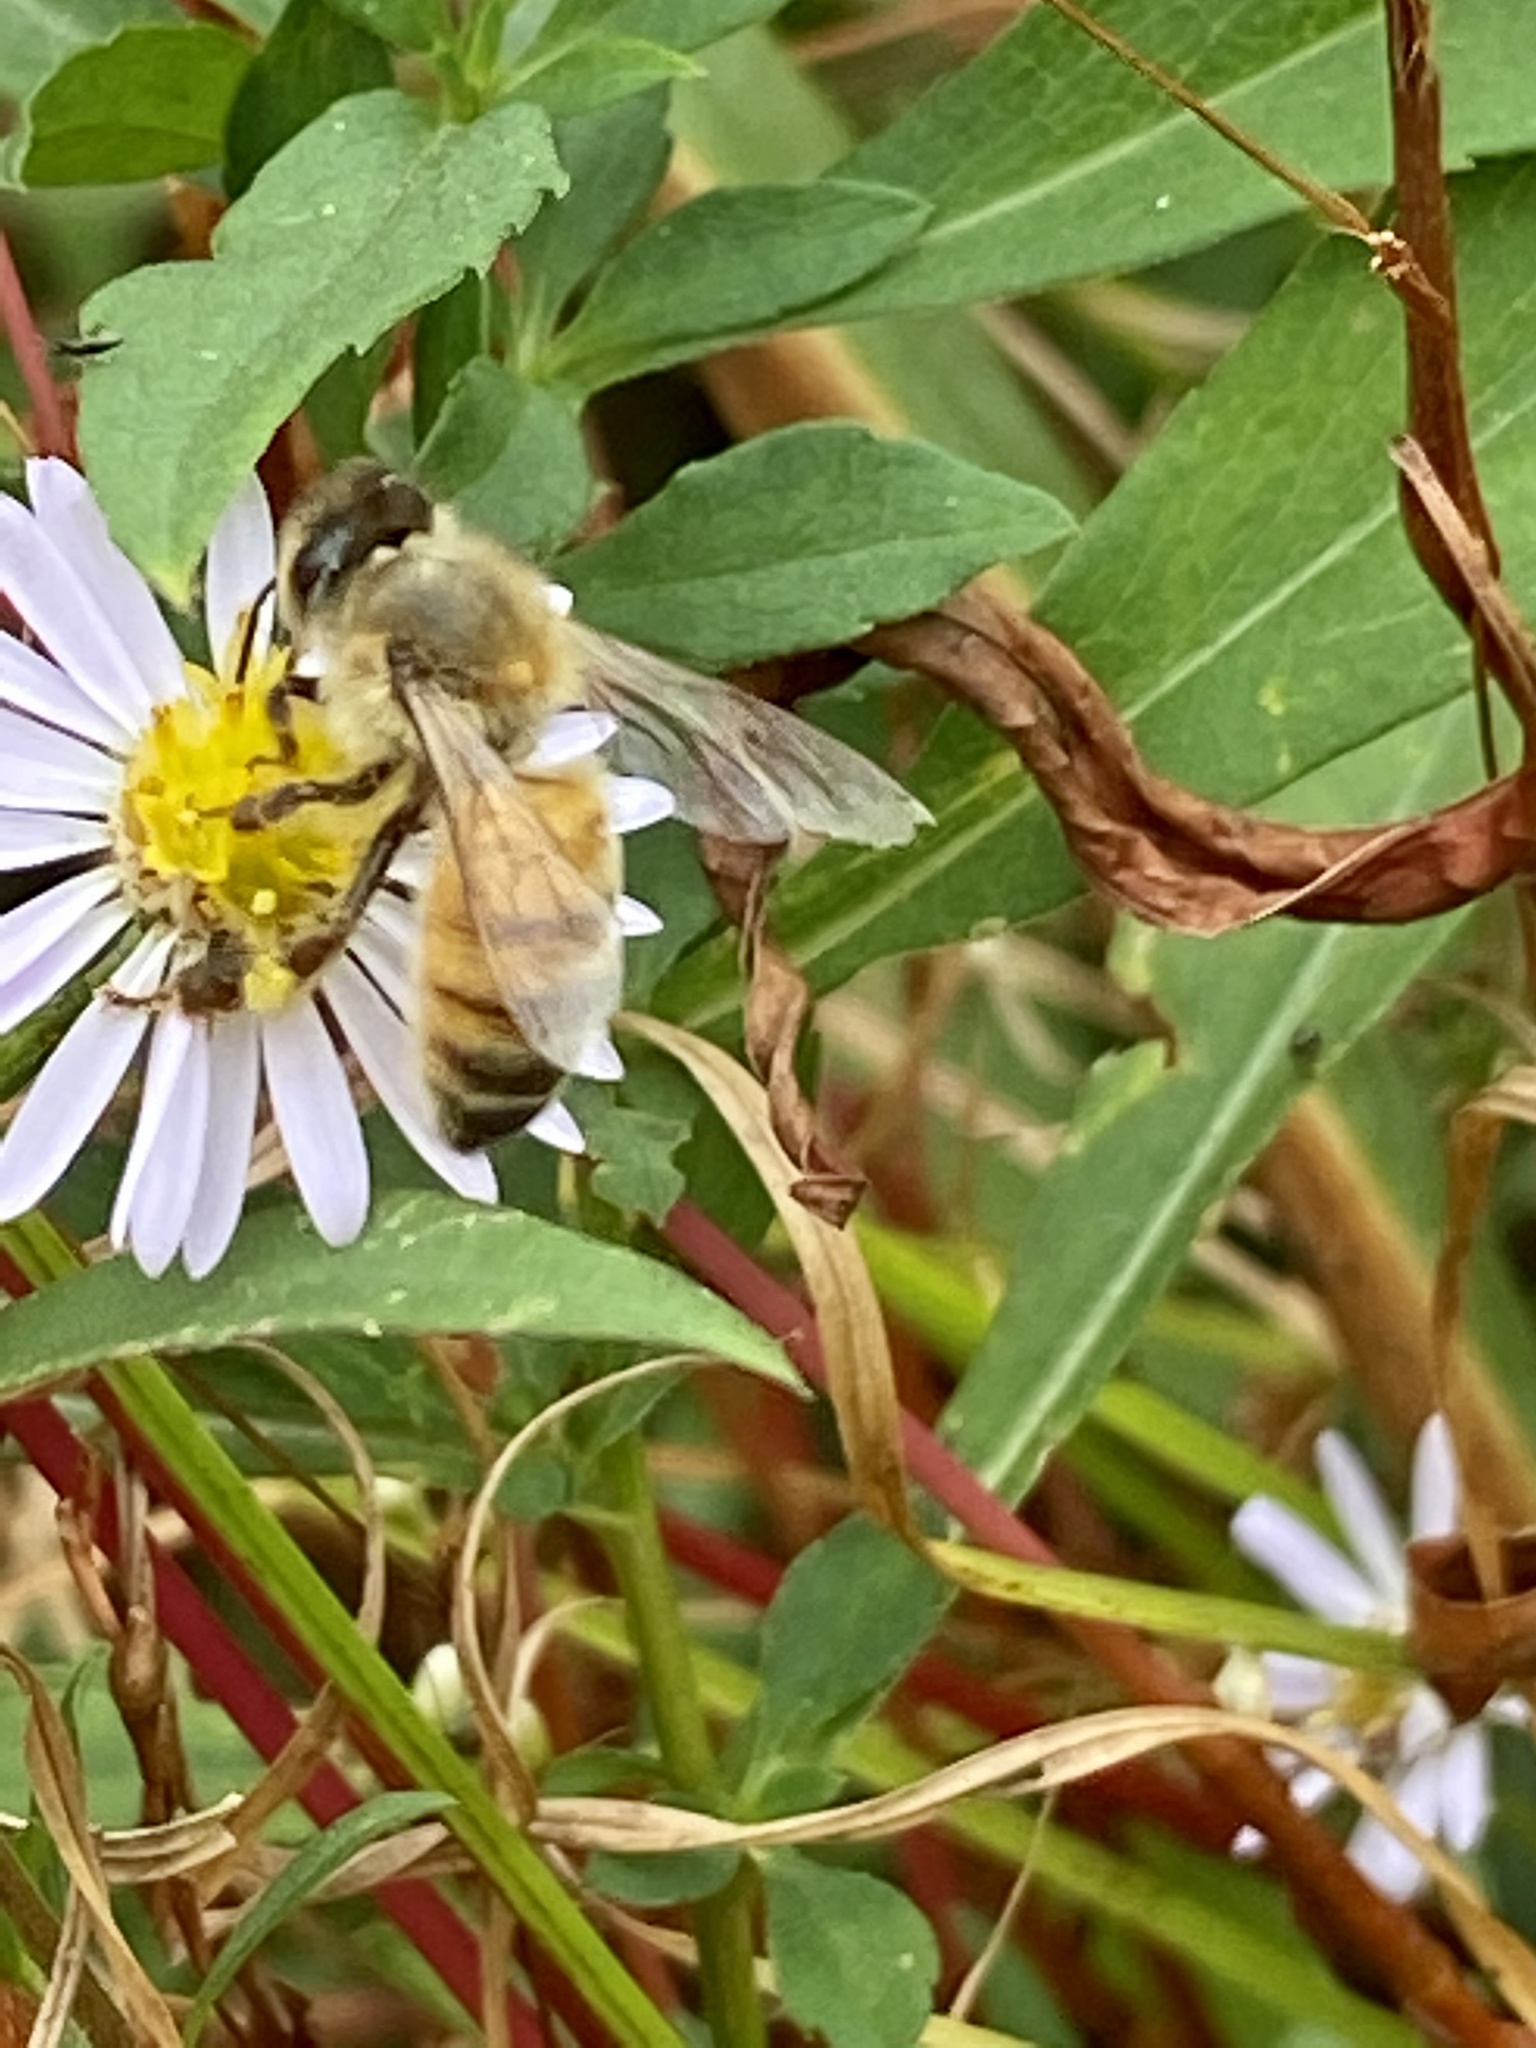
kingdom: Animalia
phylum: Arthropoda
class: Insecta
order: Hymenoptera
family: Apidae
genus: Apis
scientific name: Apis mellifera
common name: Honey bee
